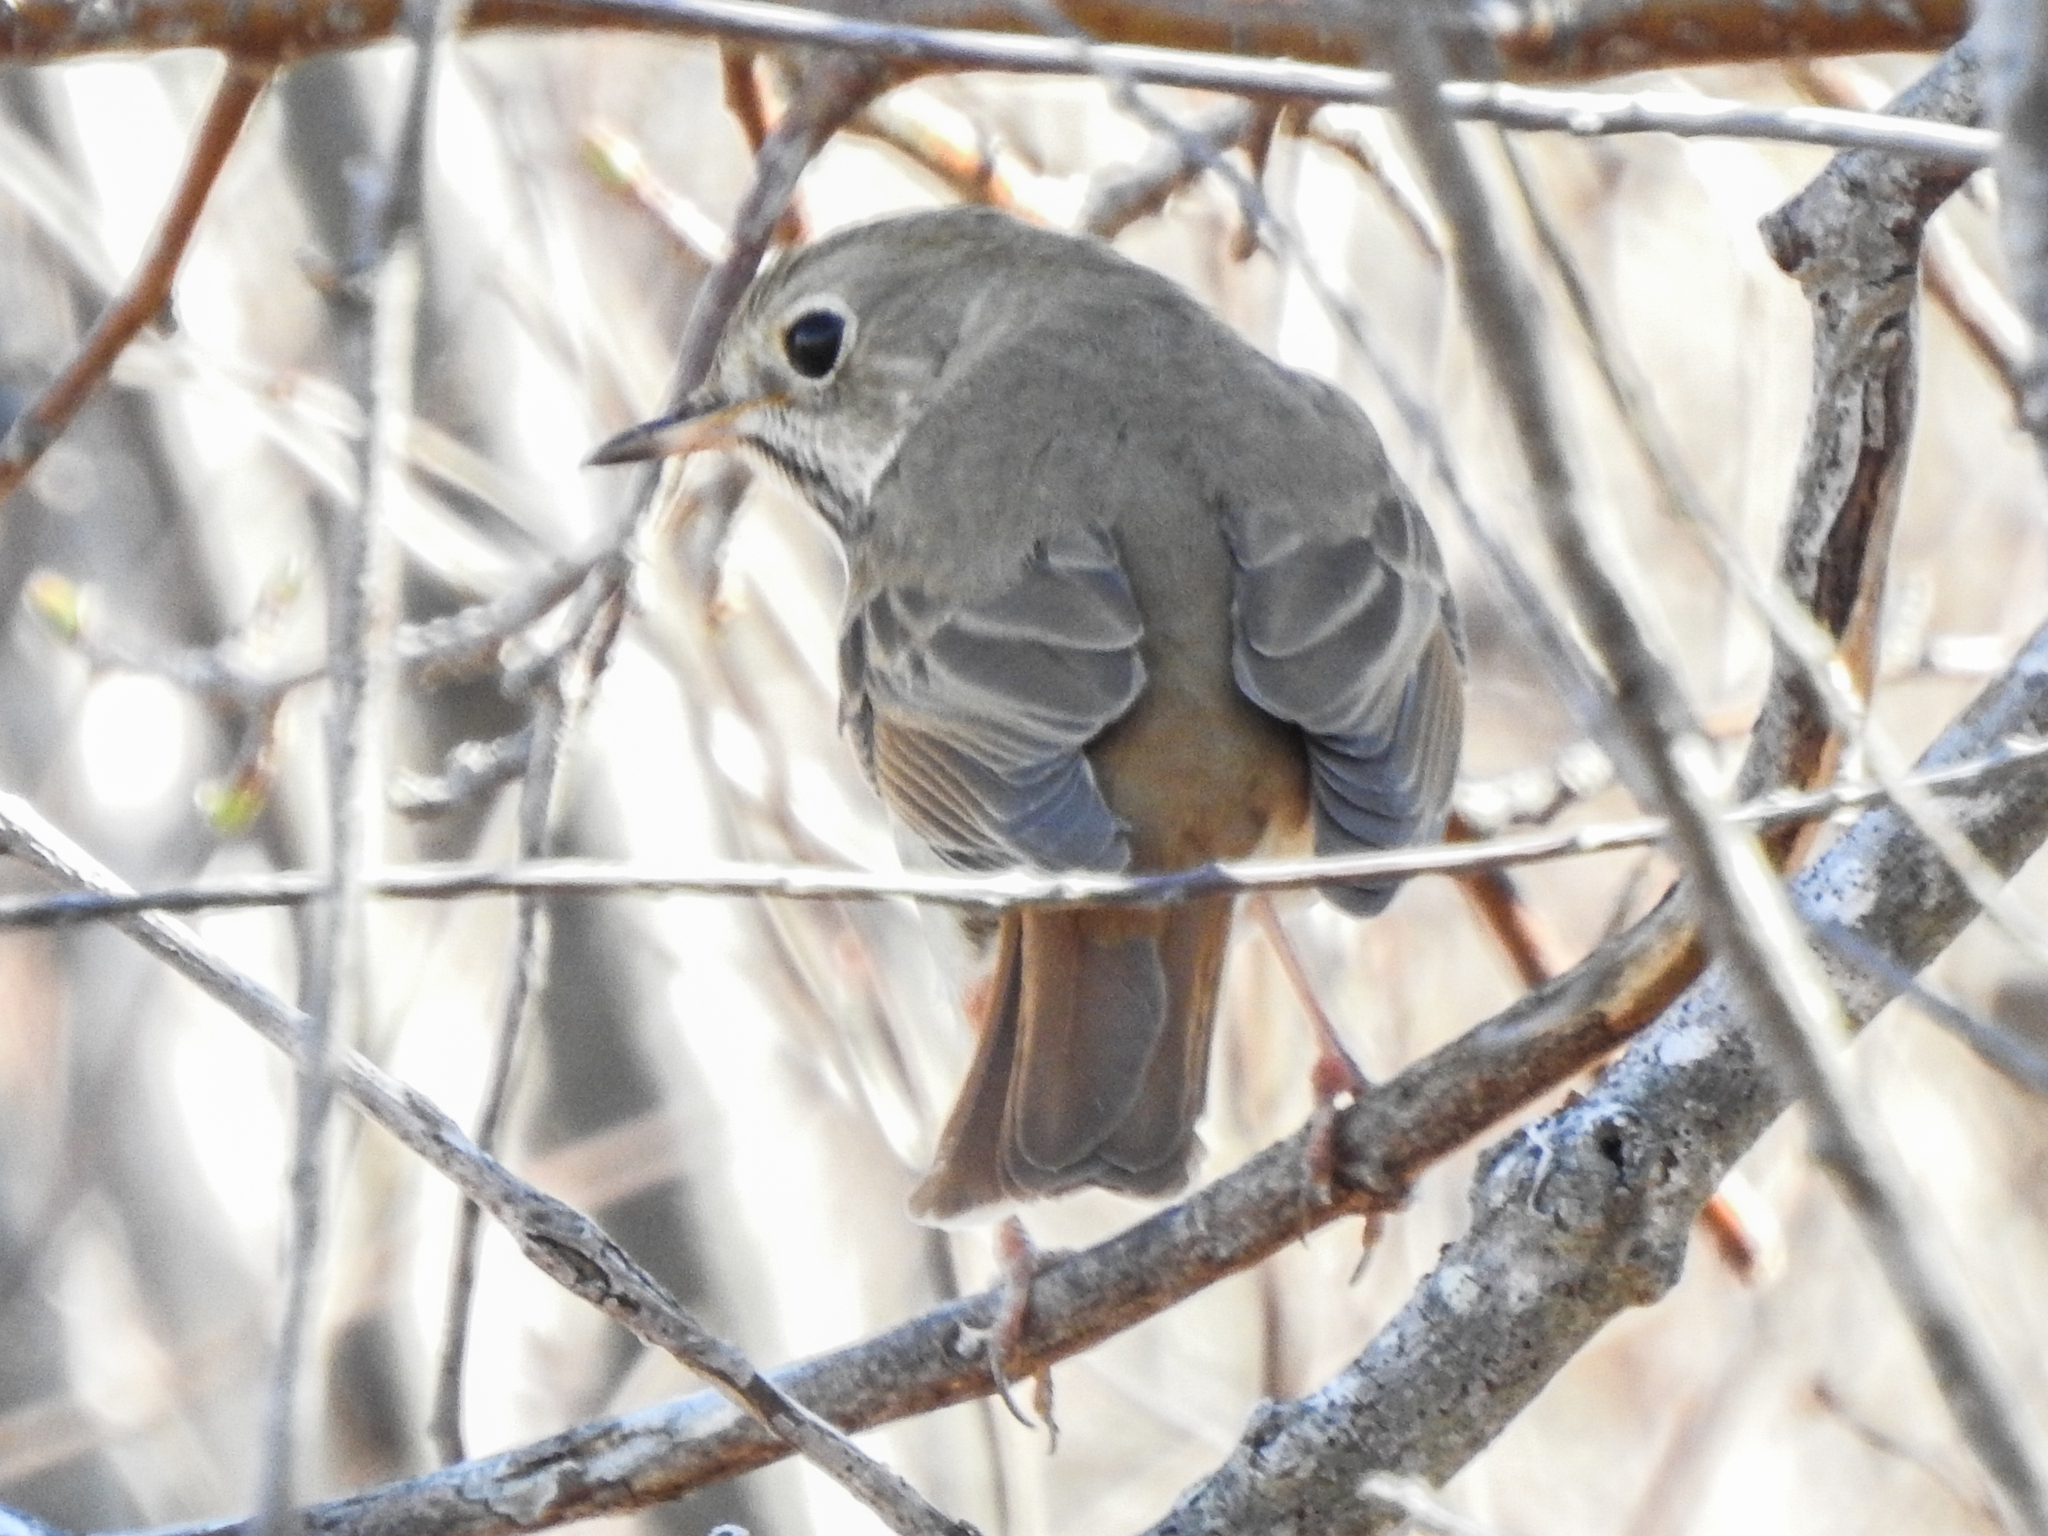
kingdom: Animalia
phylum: Chordata
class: Aves
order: Passeriformes
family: Turdidae
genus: Catharus
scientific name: Catharus guttatus
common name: Hermit thrush
